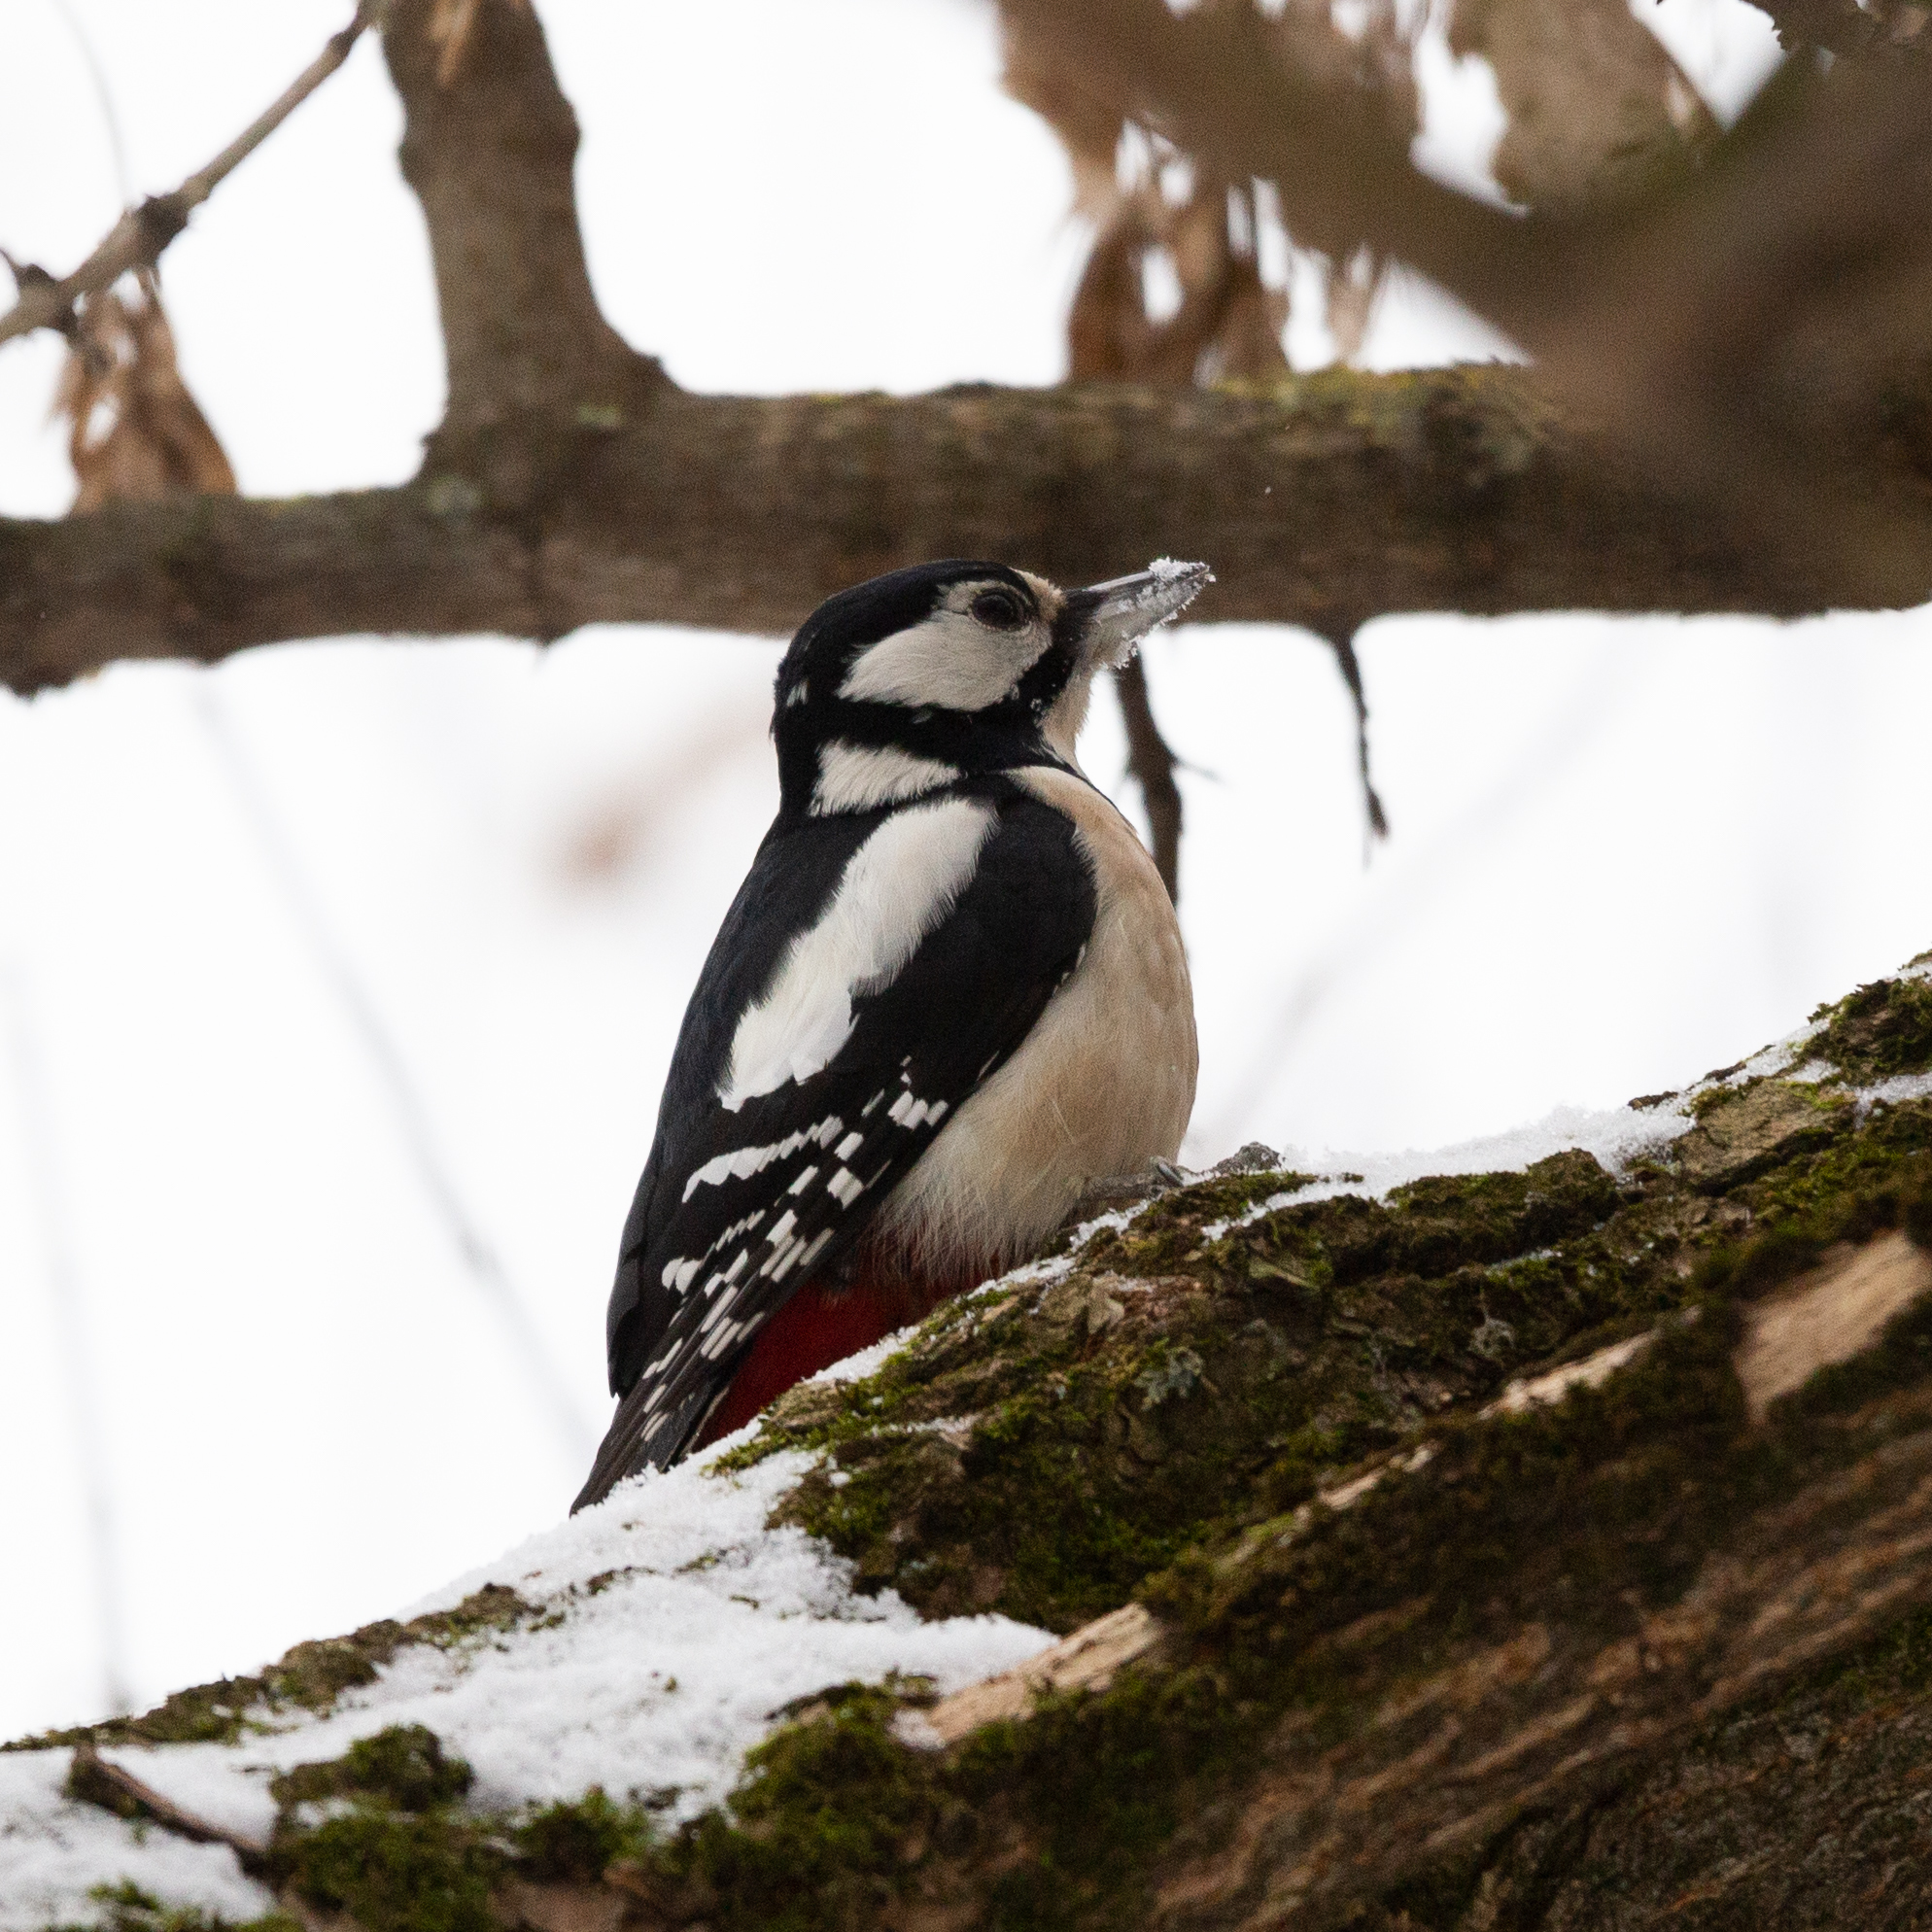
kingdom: Animalia
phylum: Chordata
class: Aves
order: Piciformes
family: Picidae
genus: Dendrocopos
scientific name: Dendrocopos major
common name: Great spotted woodpecker
